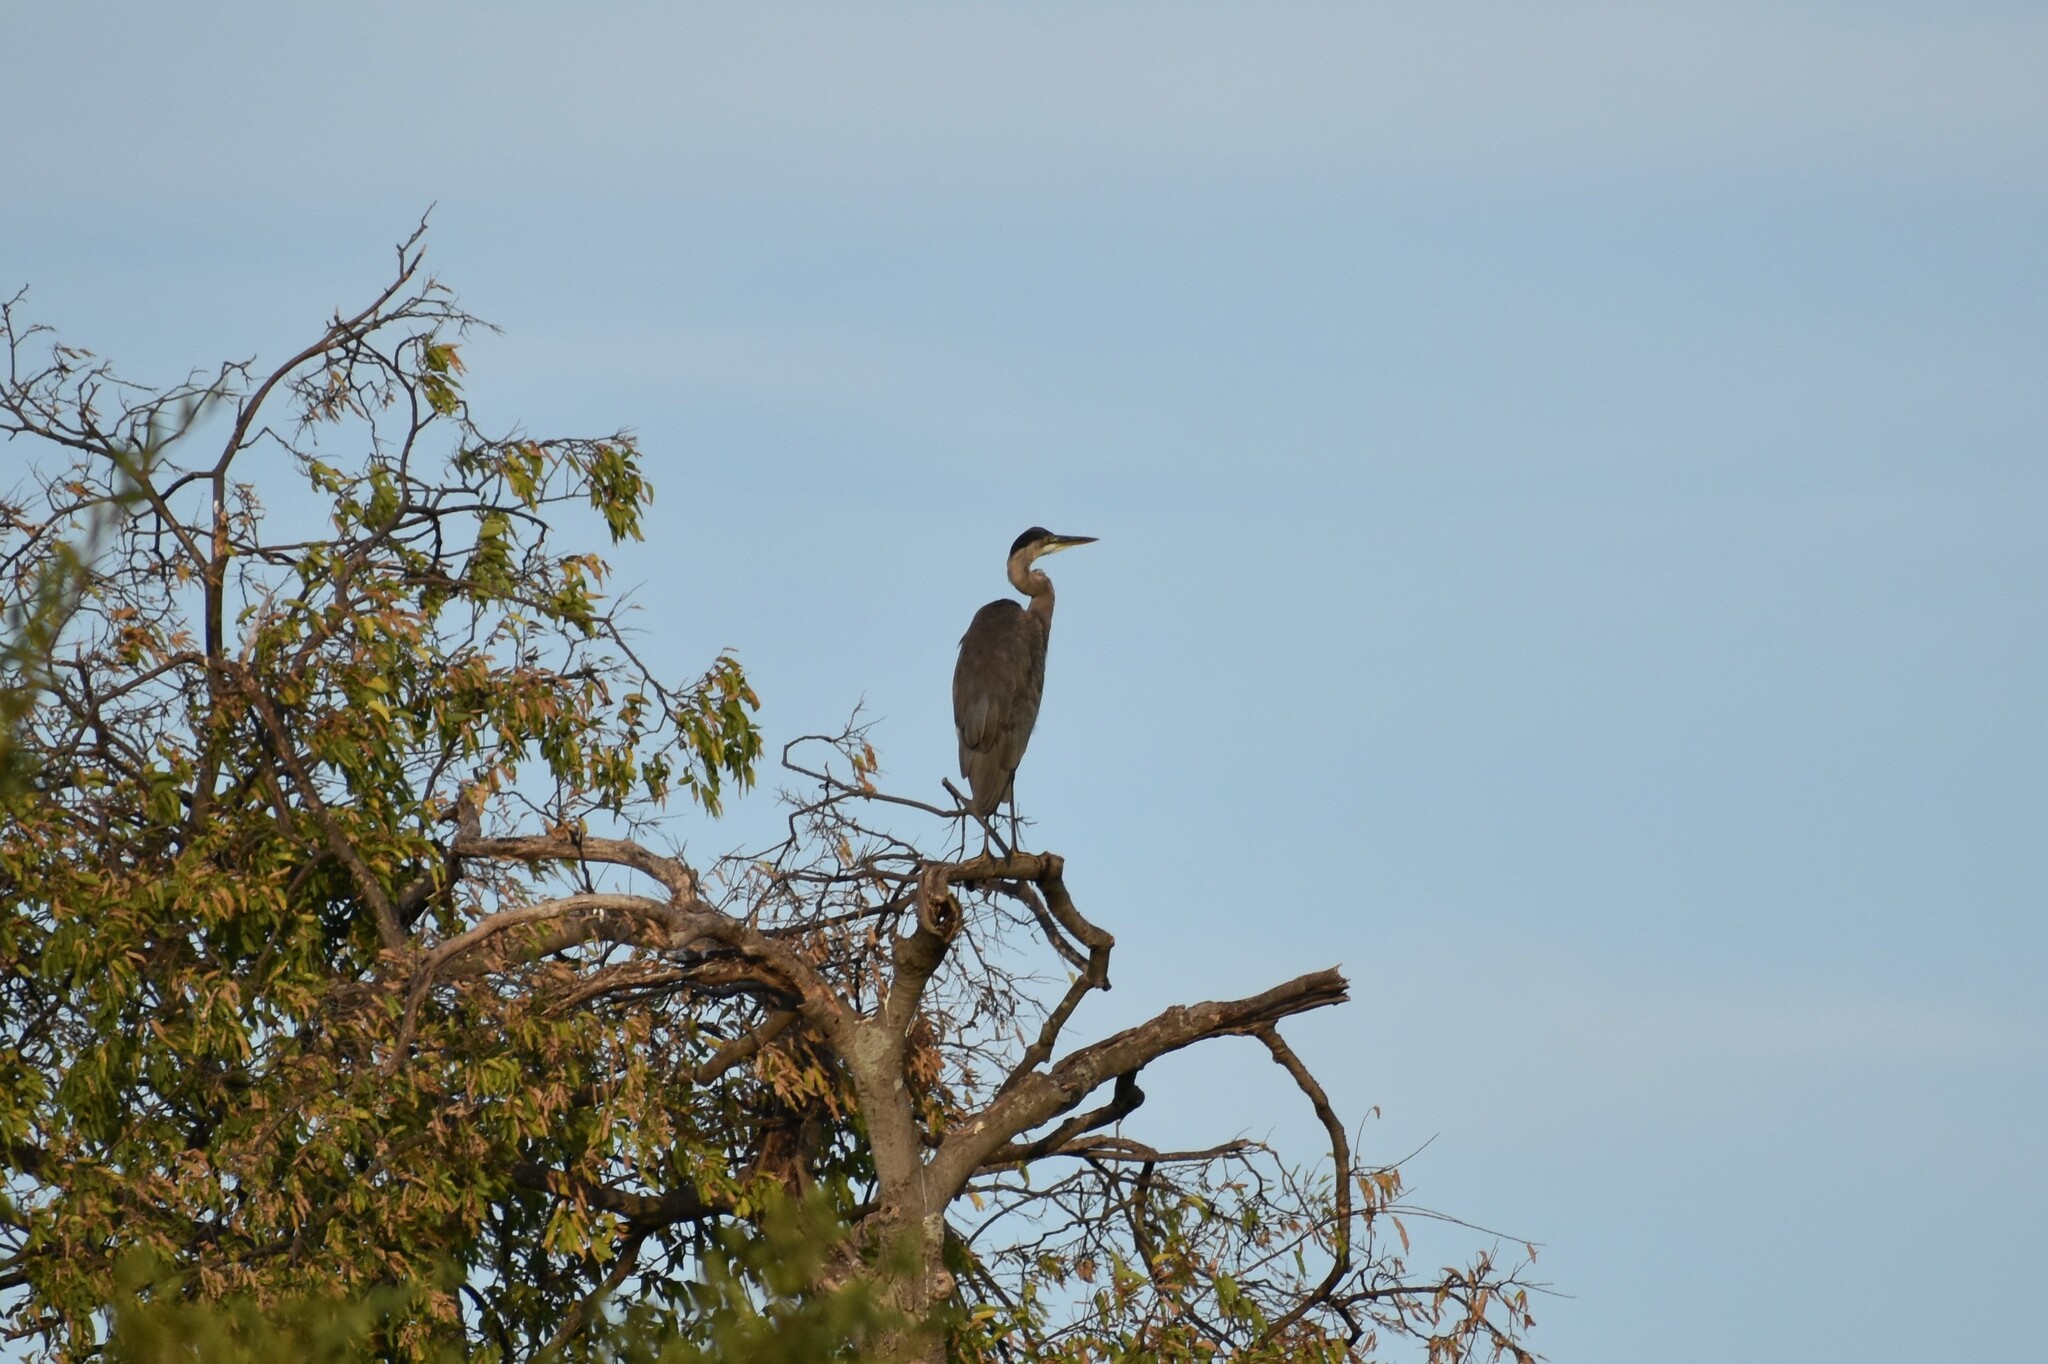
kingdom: Animalia
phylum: Chordata
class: Aves
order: Pelecaniformes
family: Ardeidae
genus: Ardea
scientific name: Ardea herodias
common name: Great blue heron
